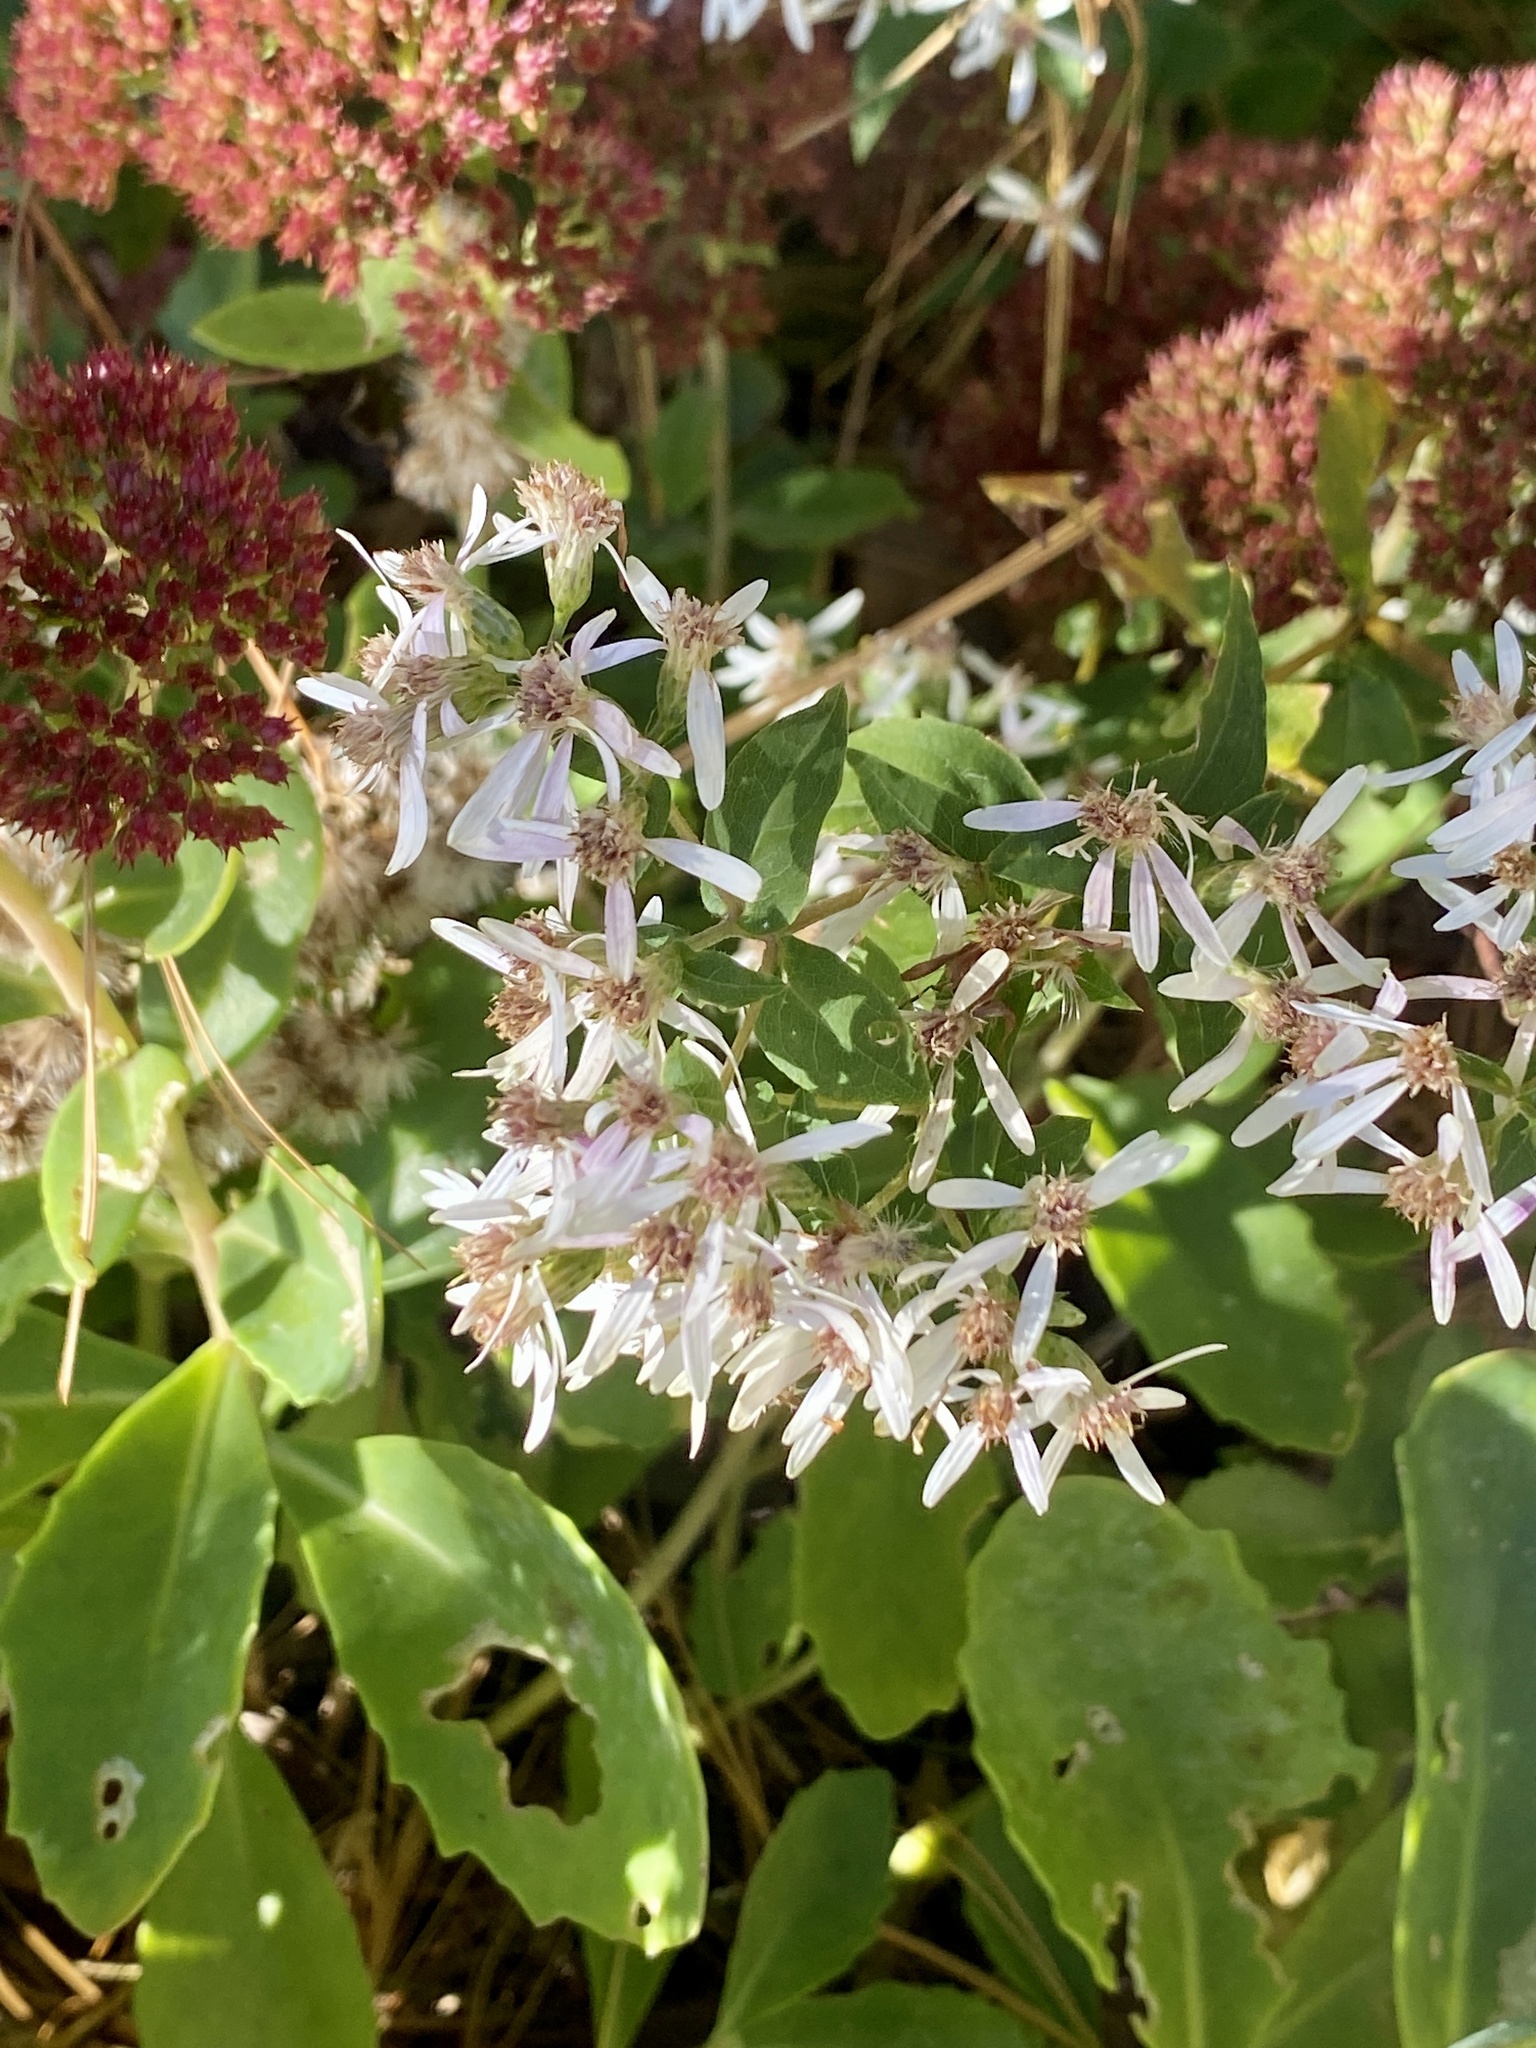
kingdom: Plantae
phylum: Tracheophyta
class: Magnoliopsida
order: Asterales
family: Asteraceae
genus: Eurybia
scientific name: Eurybia divaricata
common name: White wood aster
